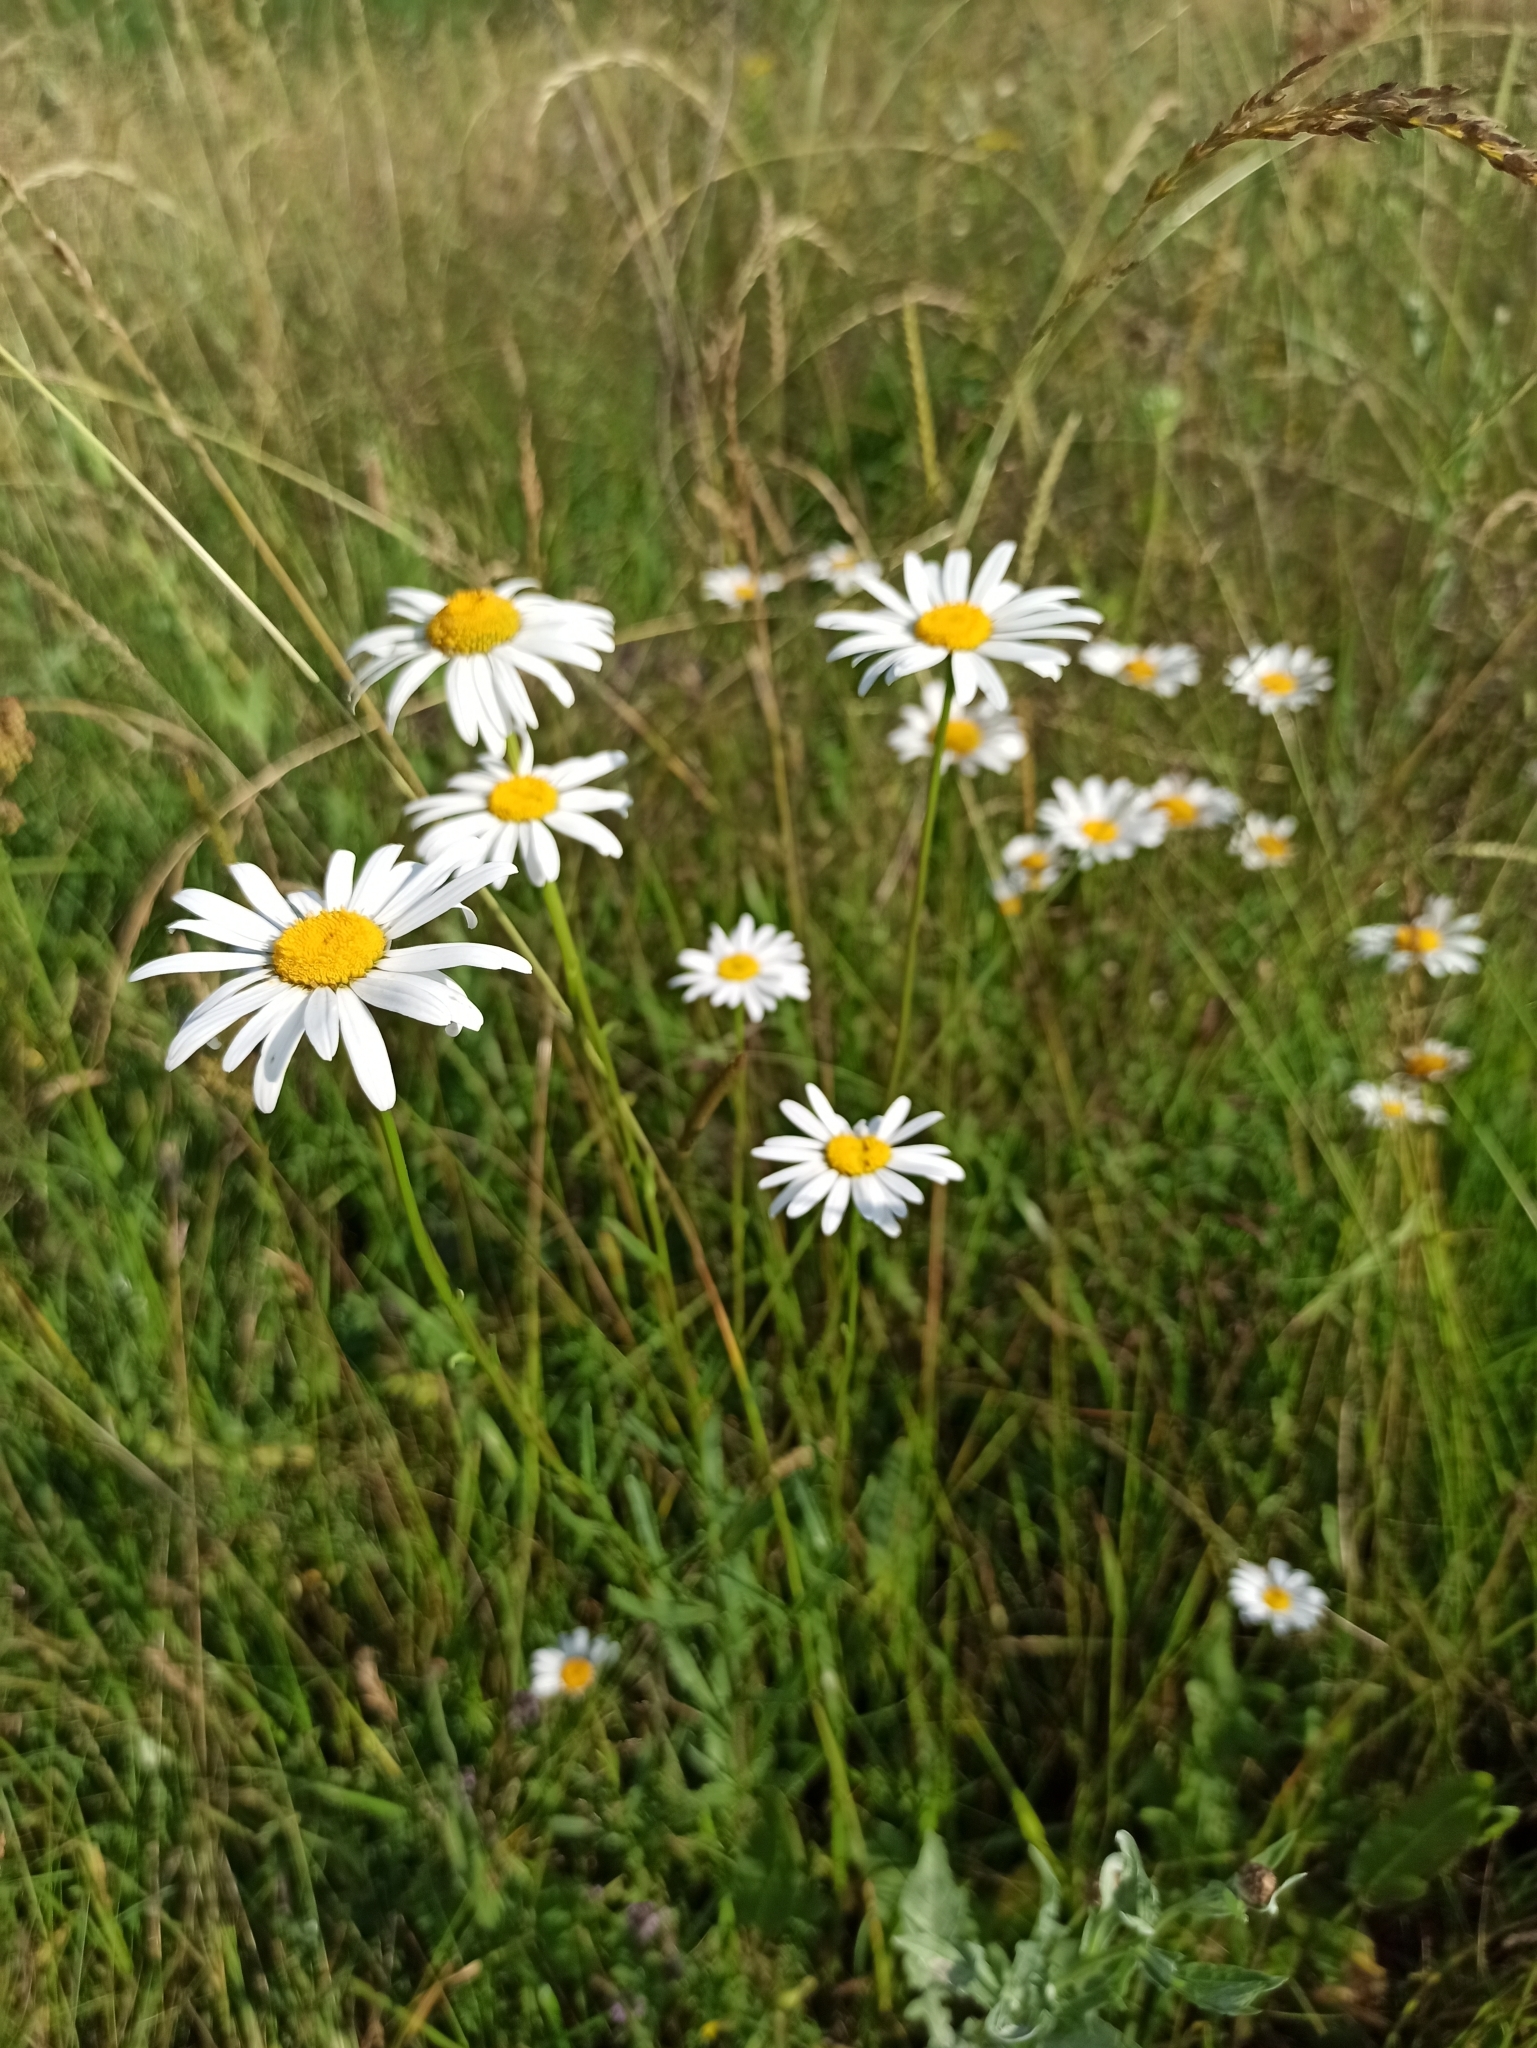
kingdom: Plantae
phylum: Tracheophyta
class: Magnoliopsida
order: Asterales
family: Asteraceae
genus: Leucanthemum
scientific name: Leucanthemum vulgare
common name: Oxeye daisy
